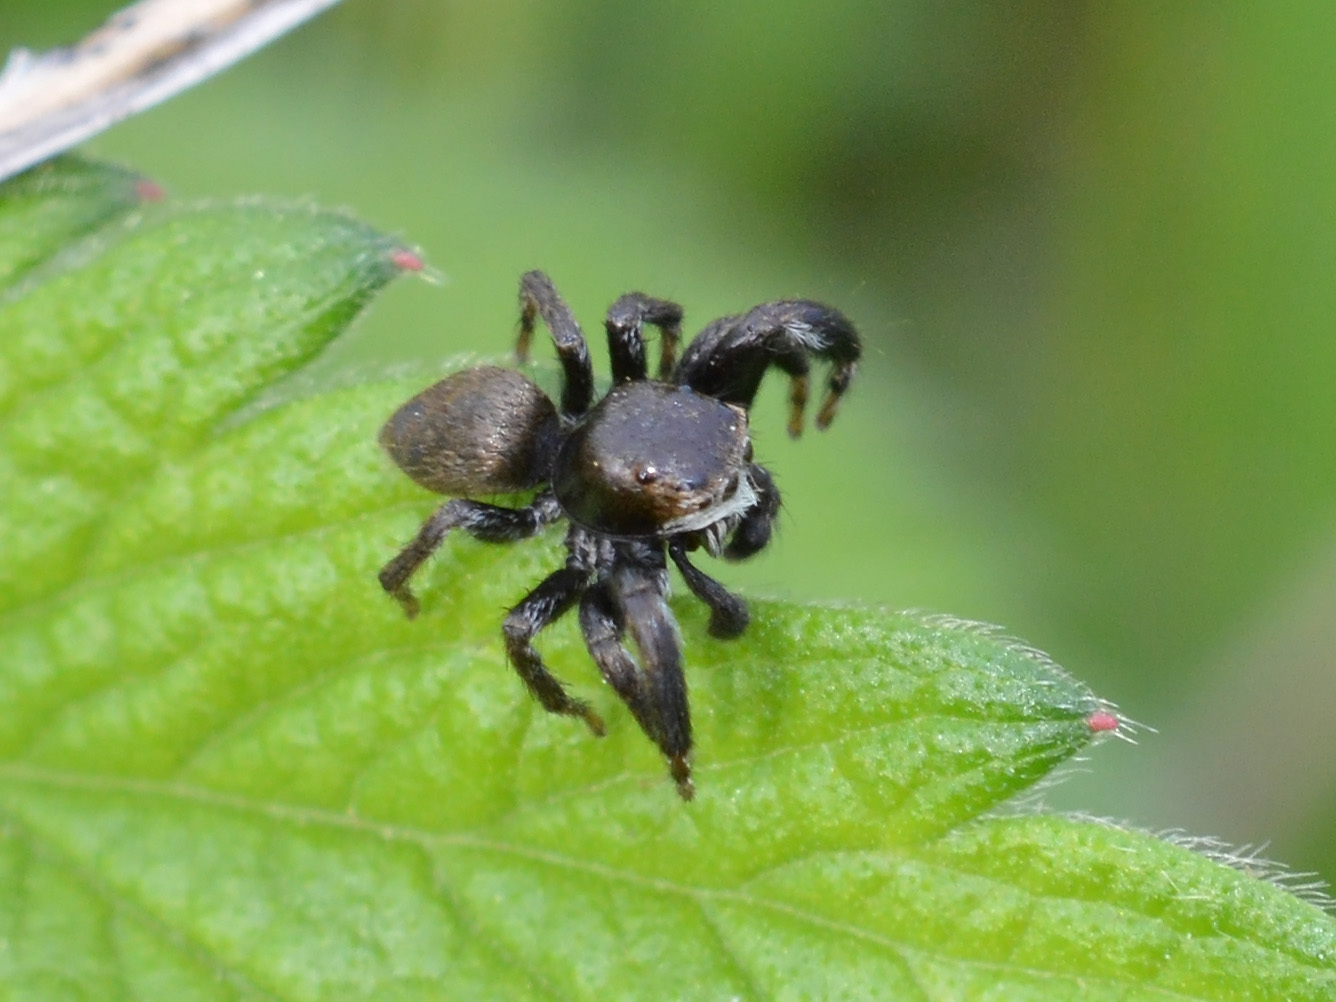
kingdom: Animalia
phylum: Arthropoda
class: Arachnida
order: Araneae
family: Salticidae
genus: Evarcha
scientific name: Evarcha arcuata
